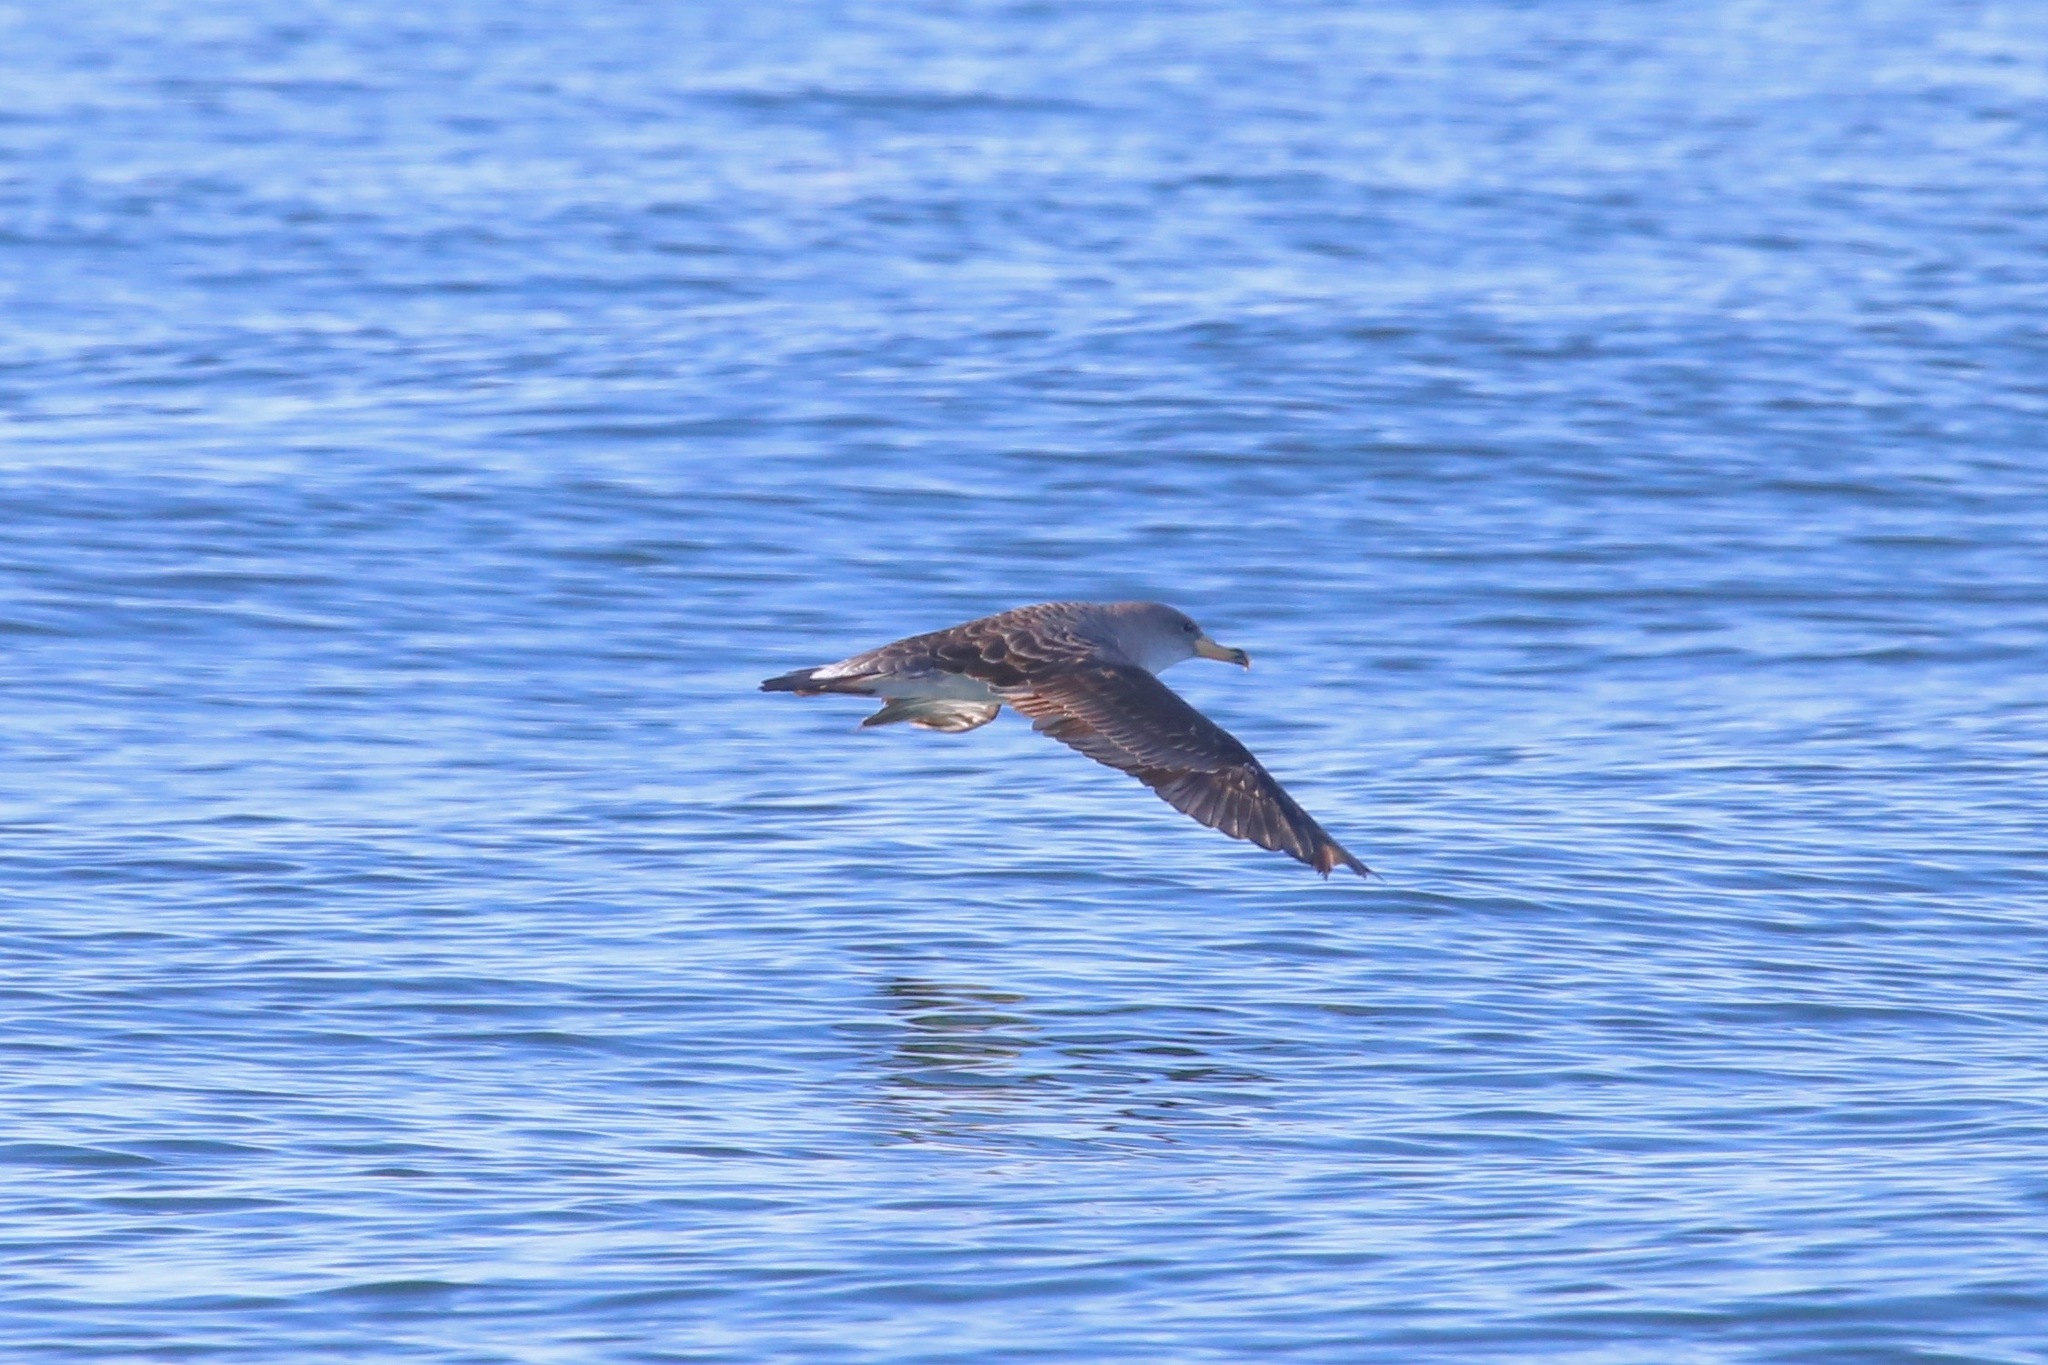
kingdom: Animalia
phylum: Chordata
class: Aves
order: Procellariiformes
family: Procellariidae
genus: Calonectris
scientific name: Calonectris diomedea
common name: Cory's shearwater
